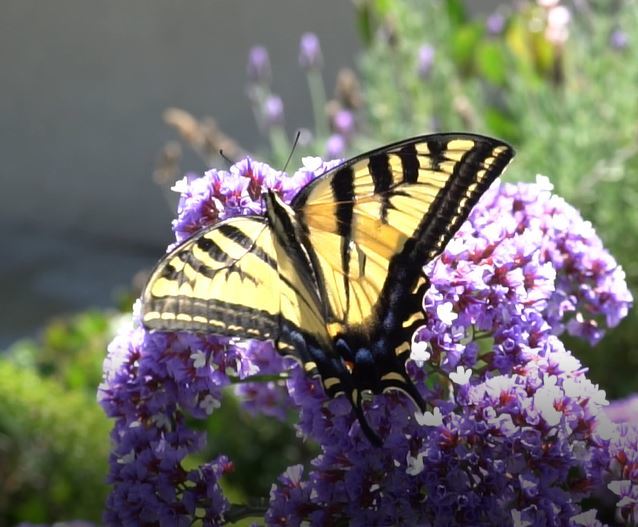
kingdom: Animalia
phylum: Arthropoda
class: Insecta
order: Lepidoptera
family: Papilionidae
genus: Papilio
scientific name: Papilio rutulus
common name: Western tiger swallowtail
